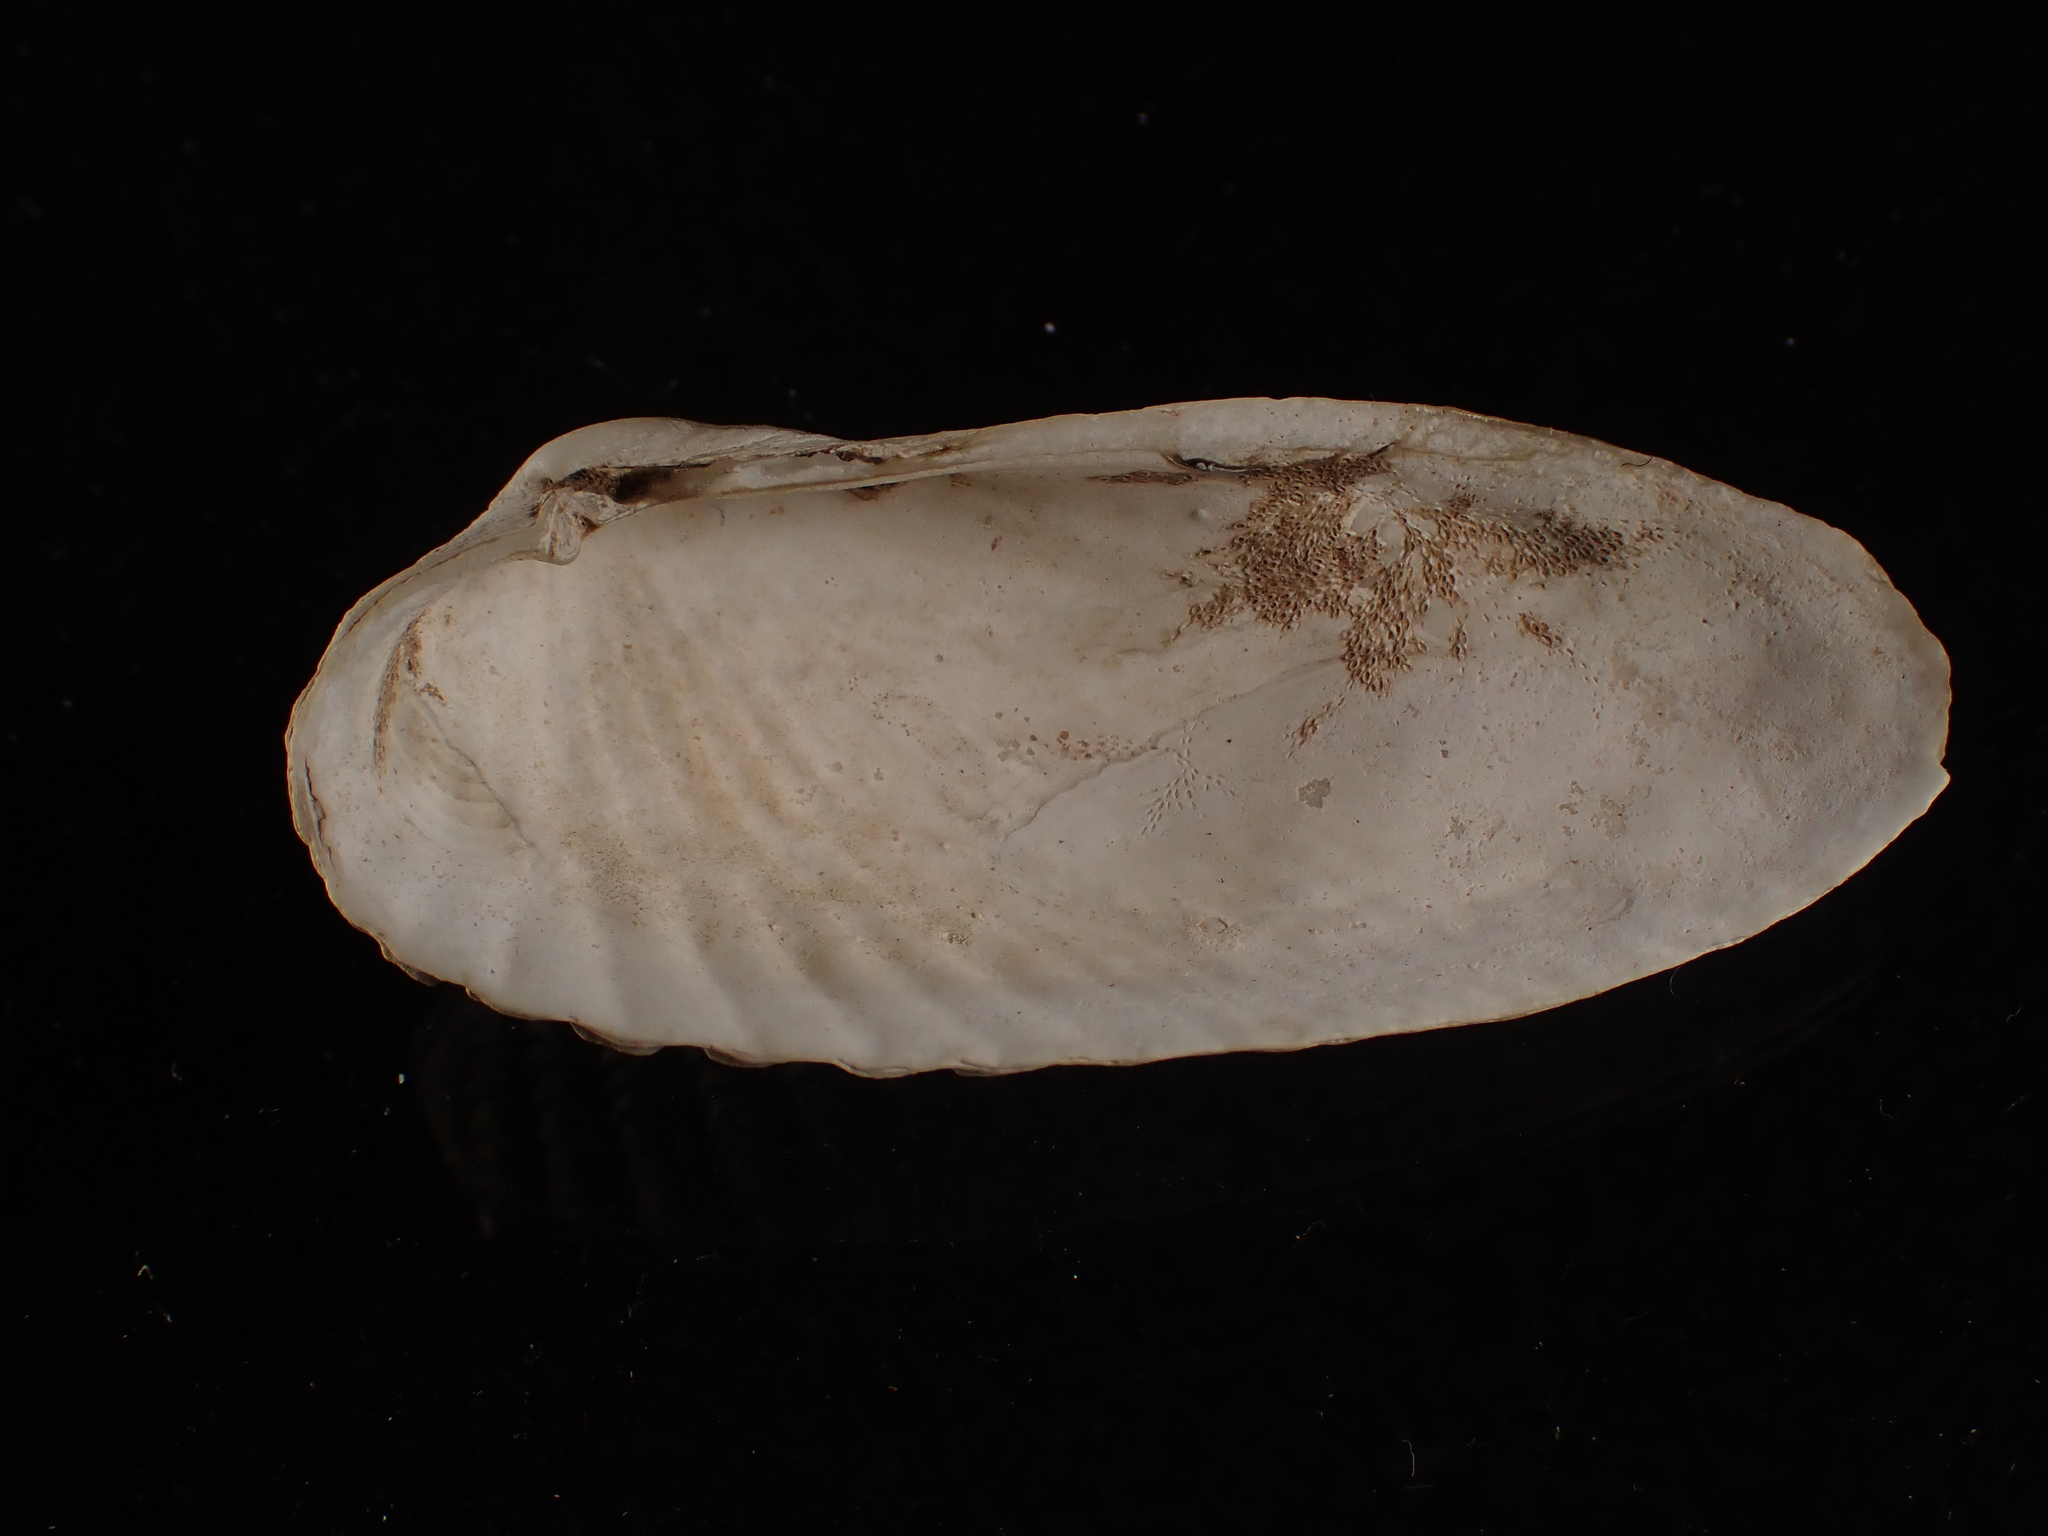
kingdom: Animalia
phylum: Mollusca
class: Bivalvia
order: Venerida
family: Veneridae
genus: Petricolaria
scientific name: Petricolaria pholadiformis
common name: American piddock
